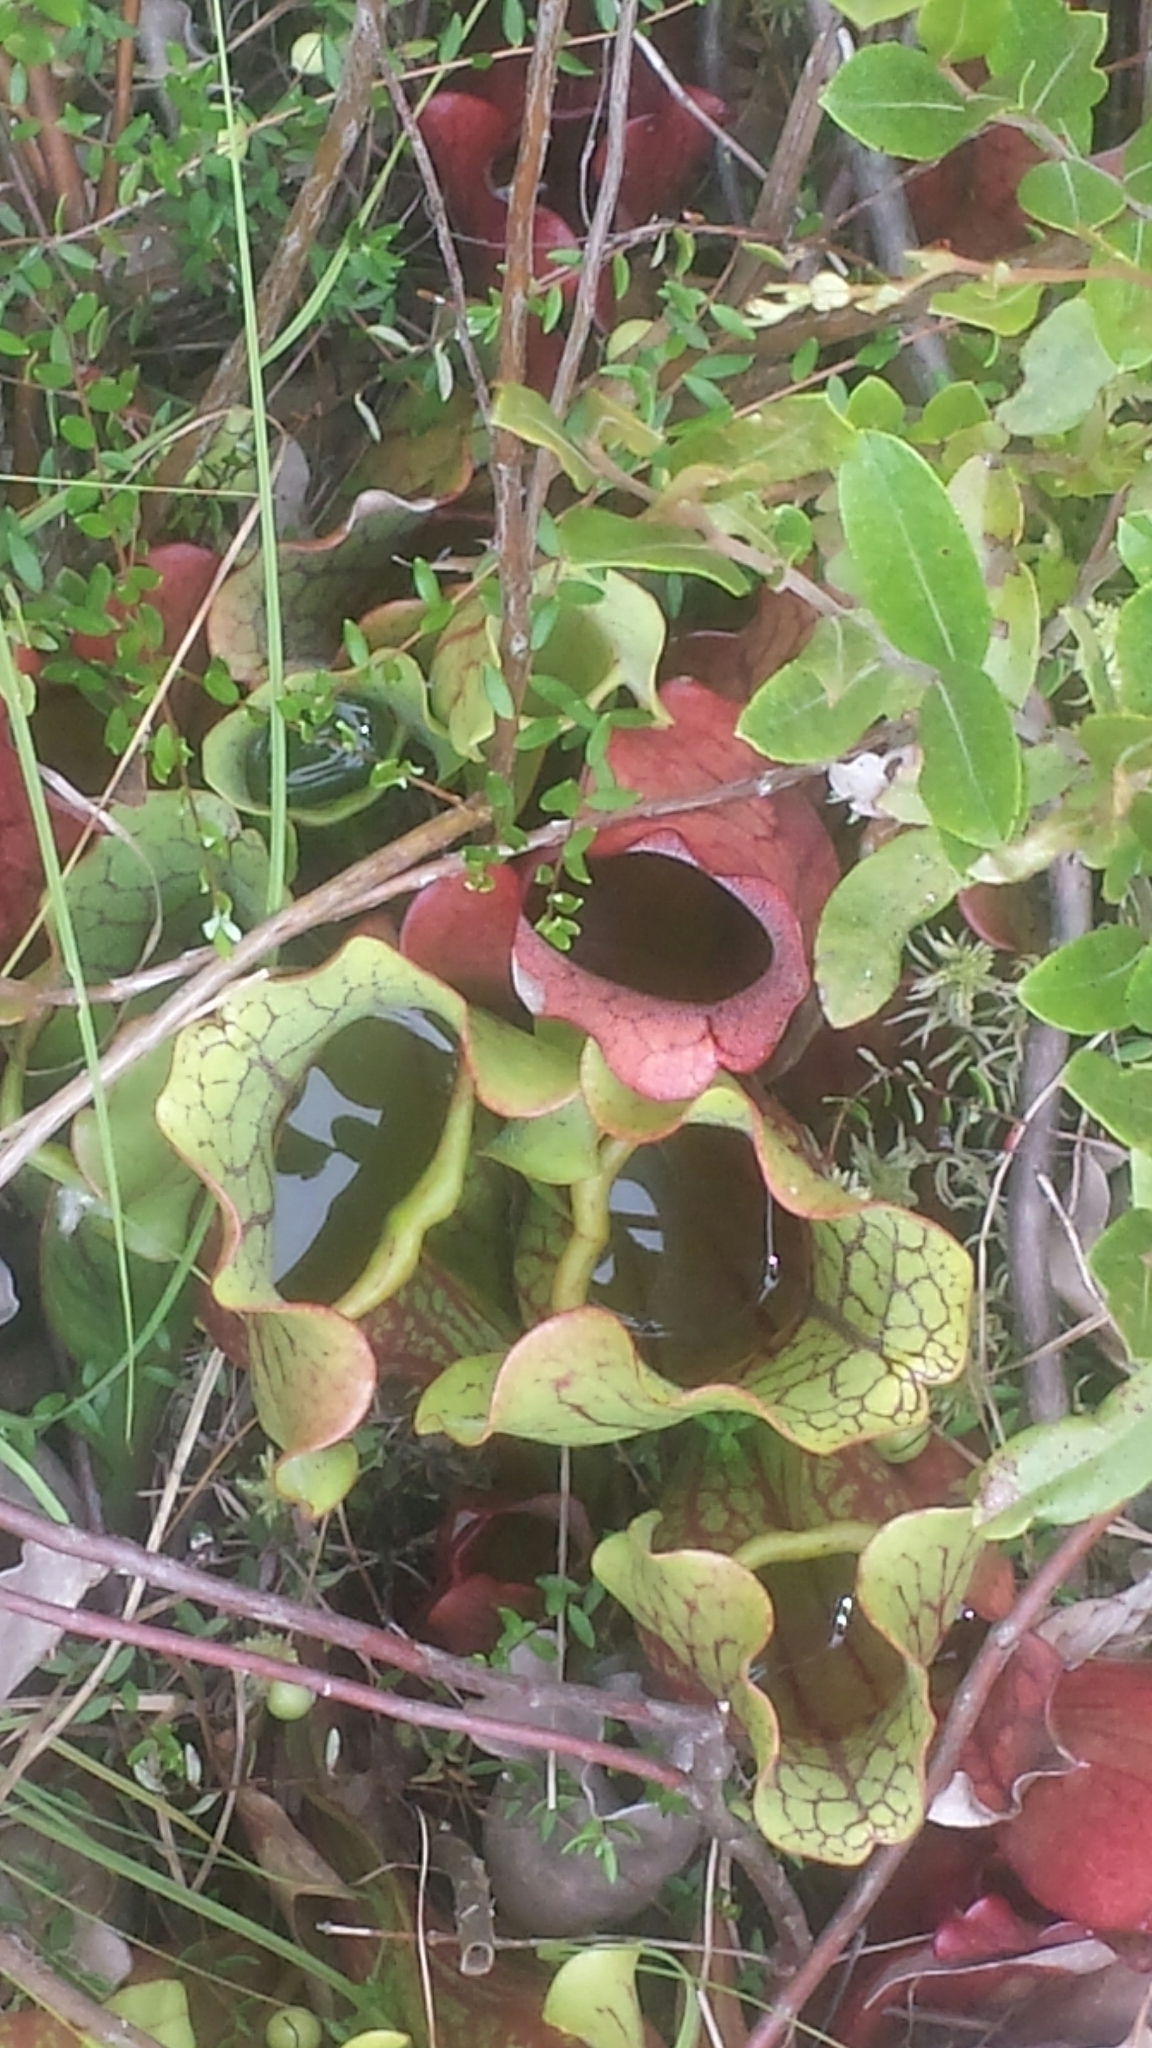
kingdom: Plantae
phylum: Tracheophyta
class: Magnoliopsida
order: Ericales
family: Sarraceniaceae
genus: Sarracenia
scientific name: Sarracenia purpurea
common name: Pitcherplant
